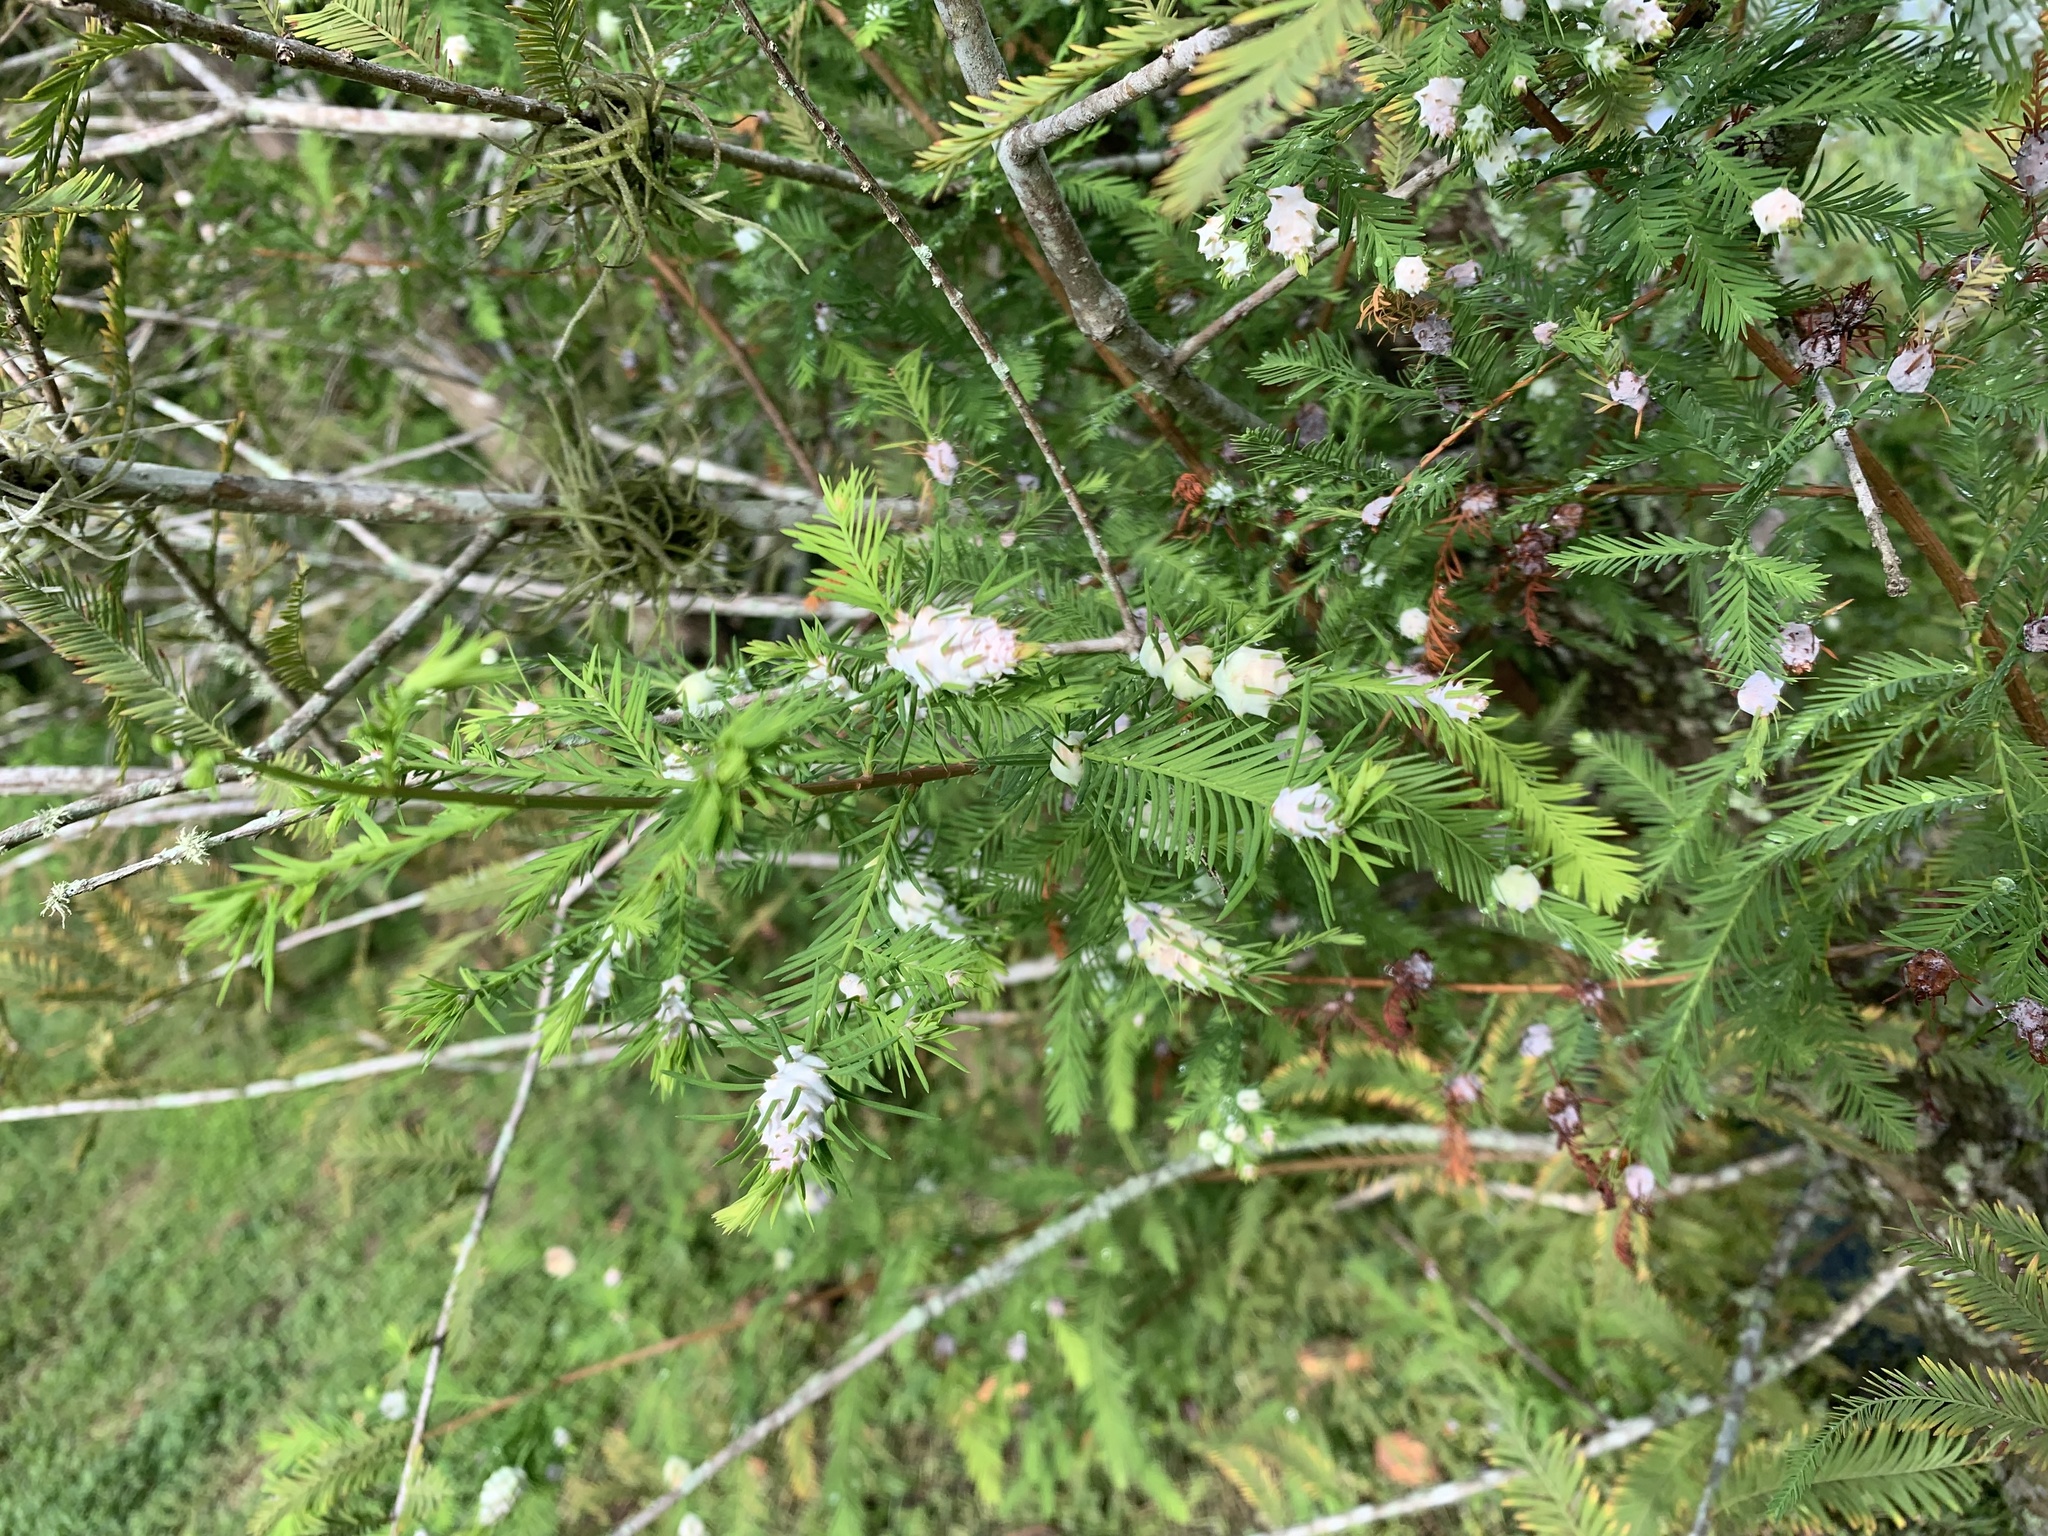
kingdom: Animalia
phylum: Arthropoda
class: Insecta
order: Diptera
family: Cecidomyiidae
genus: Taxodiomyia
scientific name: Taxodiomyia cupressiananassa
